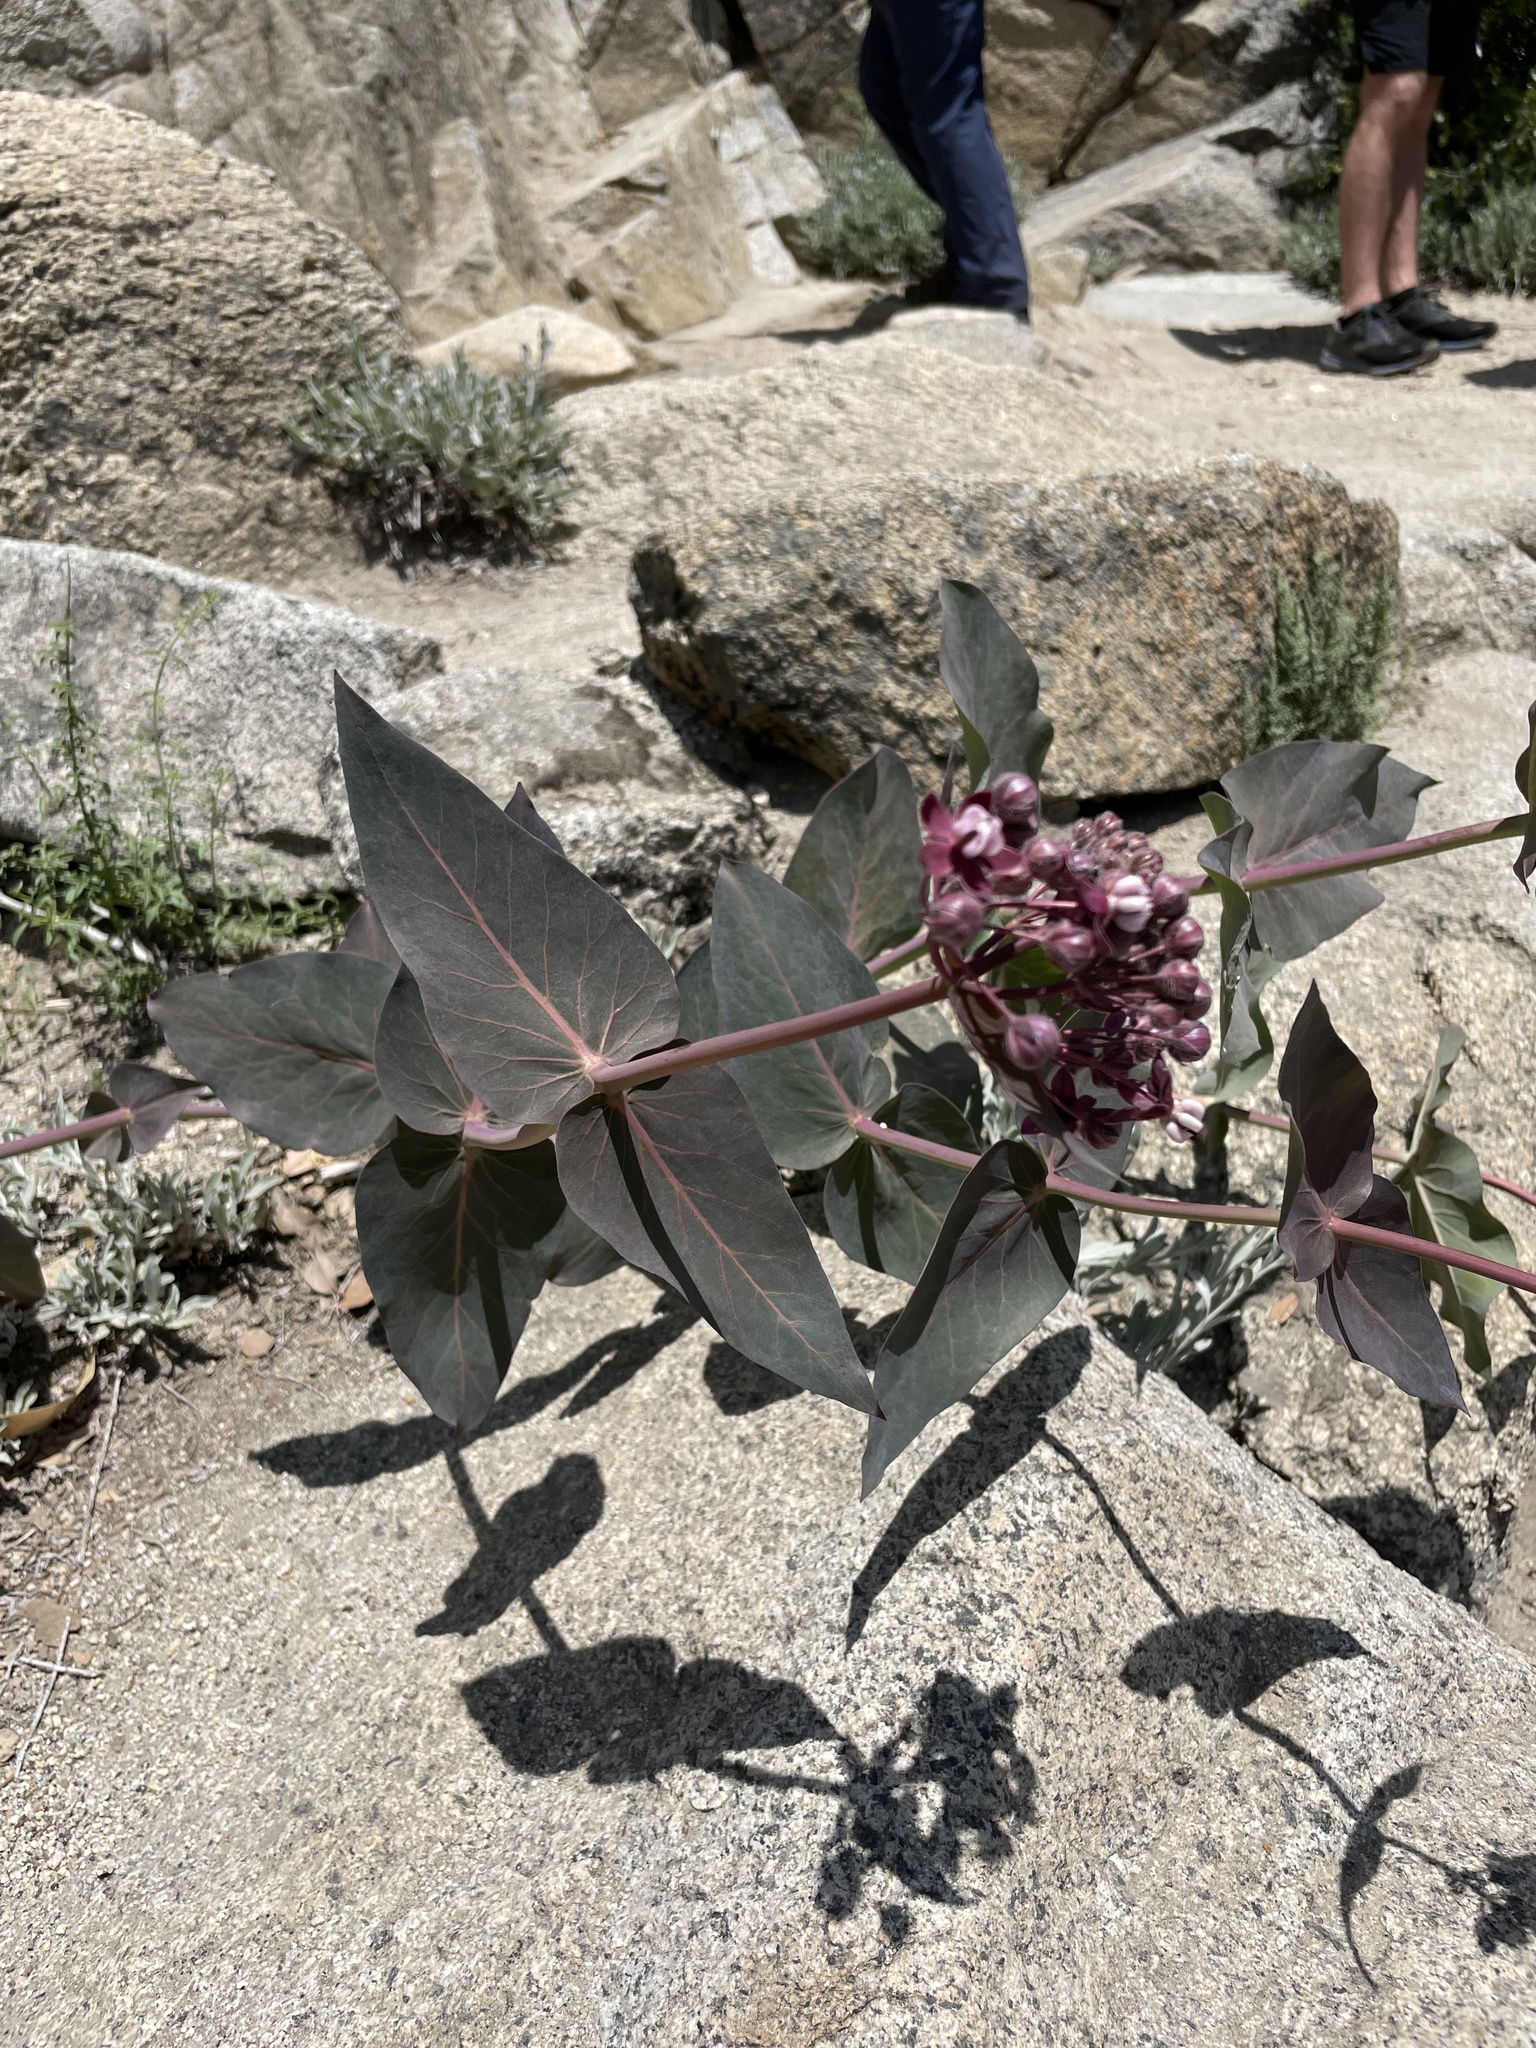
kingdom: Plantae
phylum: Tracheophyta
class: Magnoliopsida
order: Gentianales
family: Apocynaceae
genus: Asclepias
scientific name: Asclepias cordifolia
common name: Purple milkweed
